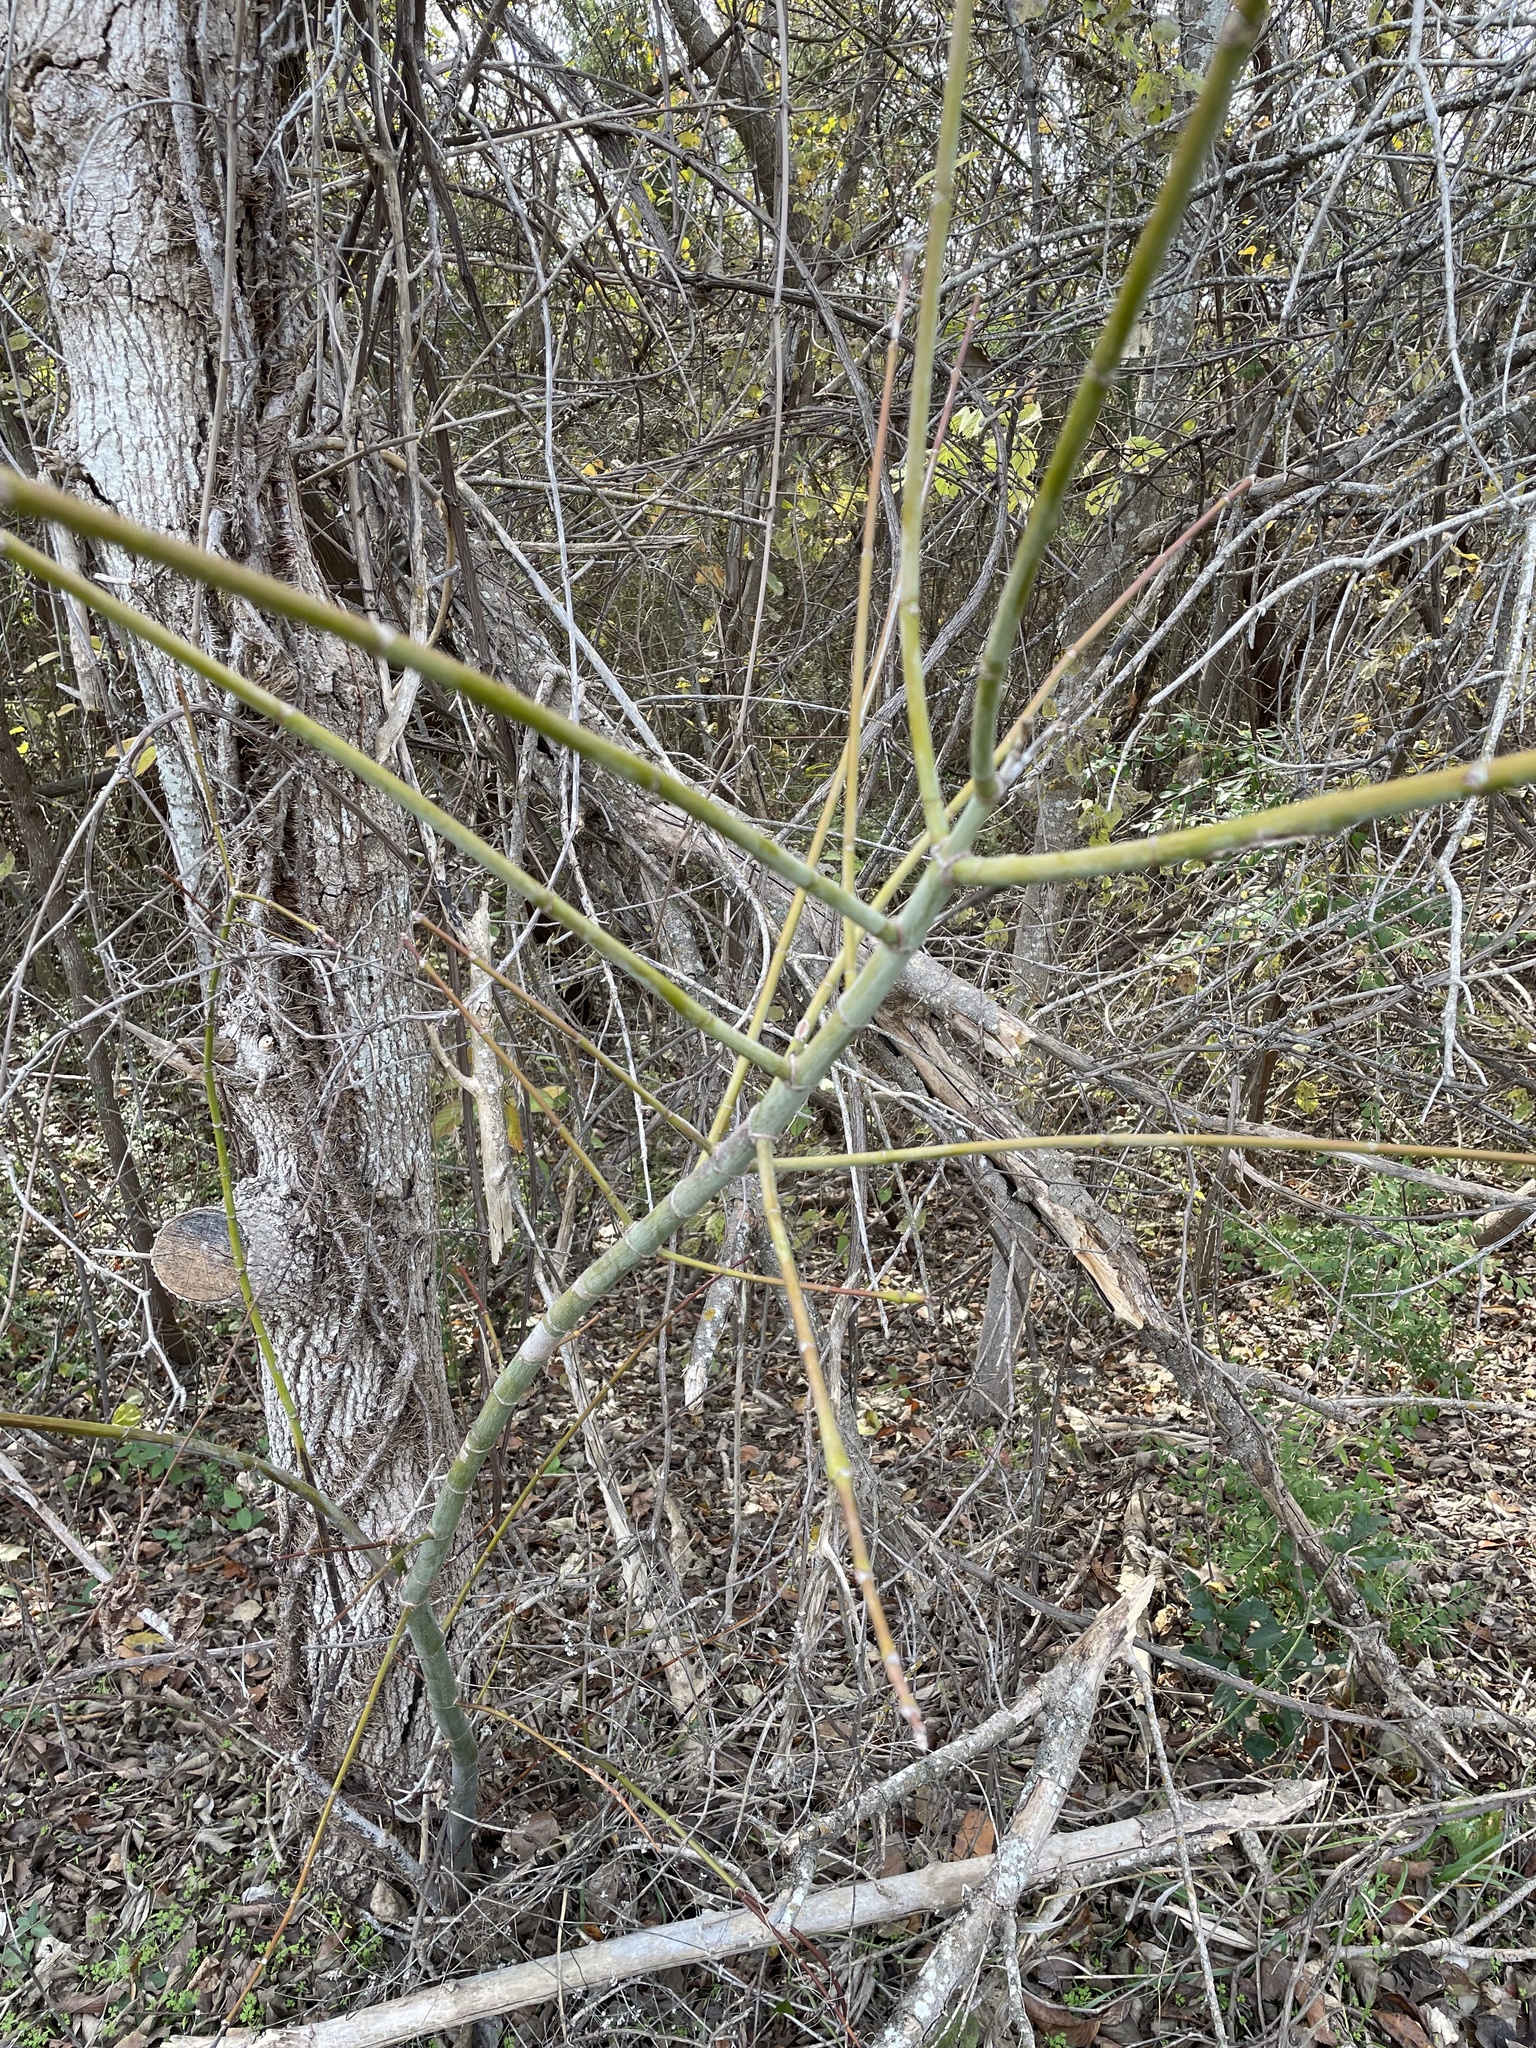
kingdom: Plantae
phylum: Tracheophyta
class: Magnoliopsida
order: Sapindales
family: Sapindaceae
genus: Acer
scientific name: Acer negundo
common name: Ashleaf maple
